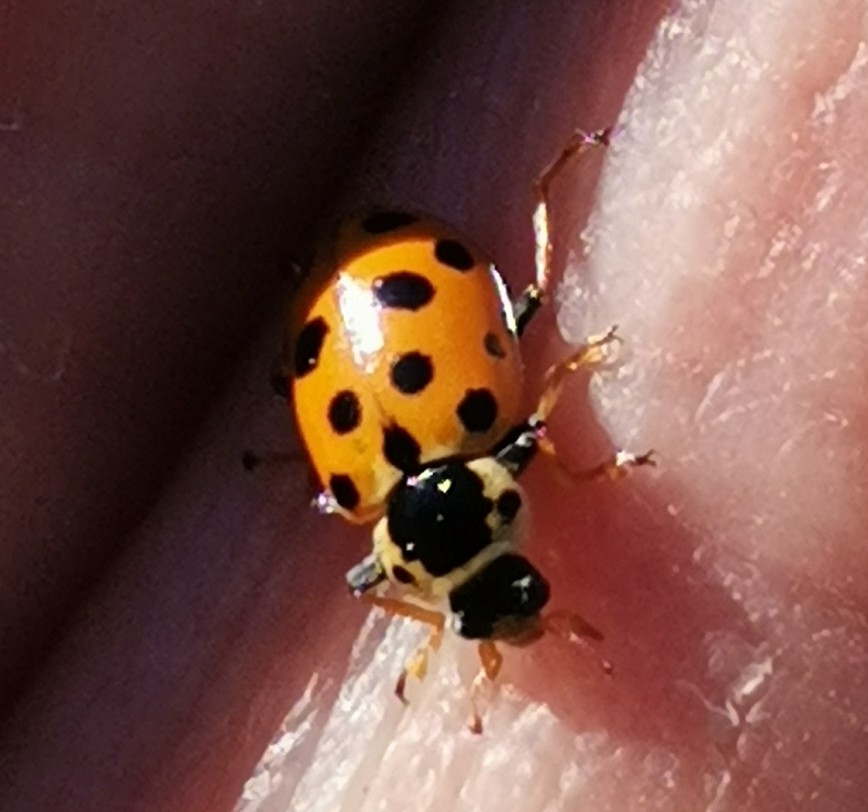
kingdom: Animalia
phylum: Arthropoda
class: Insecta
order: Coleoptera
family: Coccinellidae
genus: Hippodamia
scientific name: Hippodamia tredecimpunctata
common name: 13-spot ladybird
